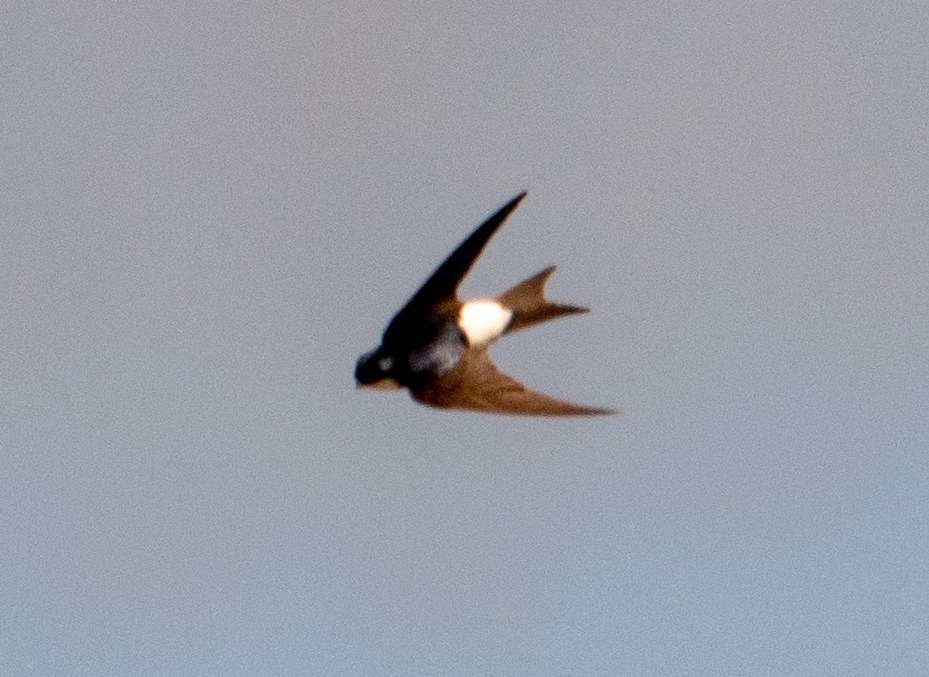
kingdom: Animalia
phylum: Chordata
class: Aves
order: Passeriformes
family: Hirundinidae
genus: Delichon
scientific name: Delichon urbicum
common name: Common house martin
